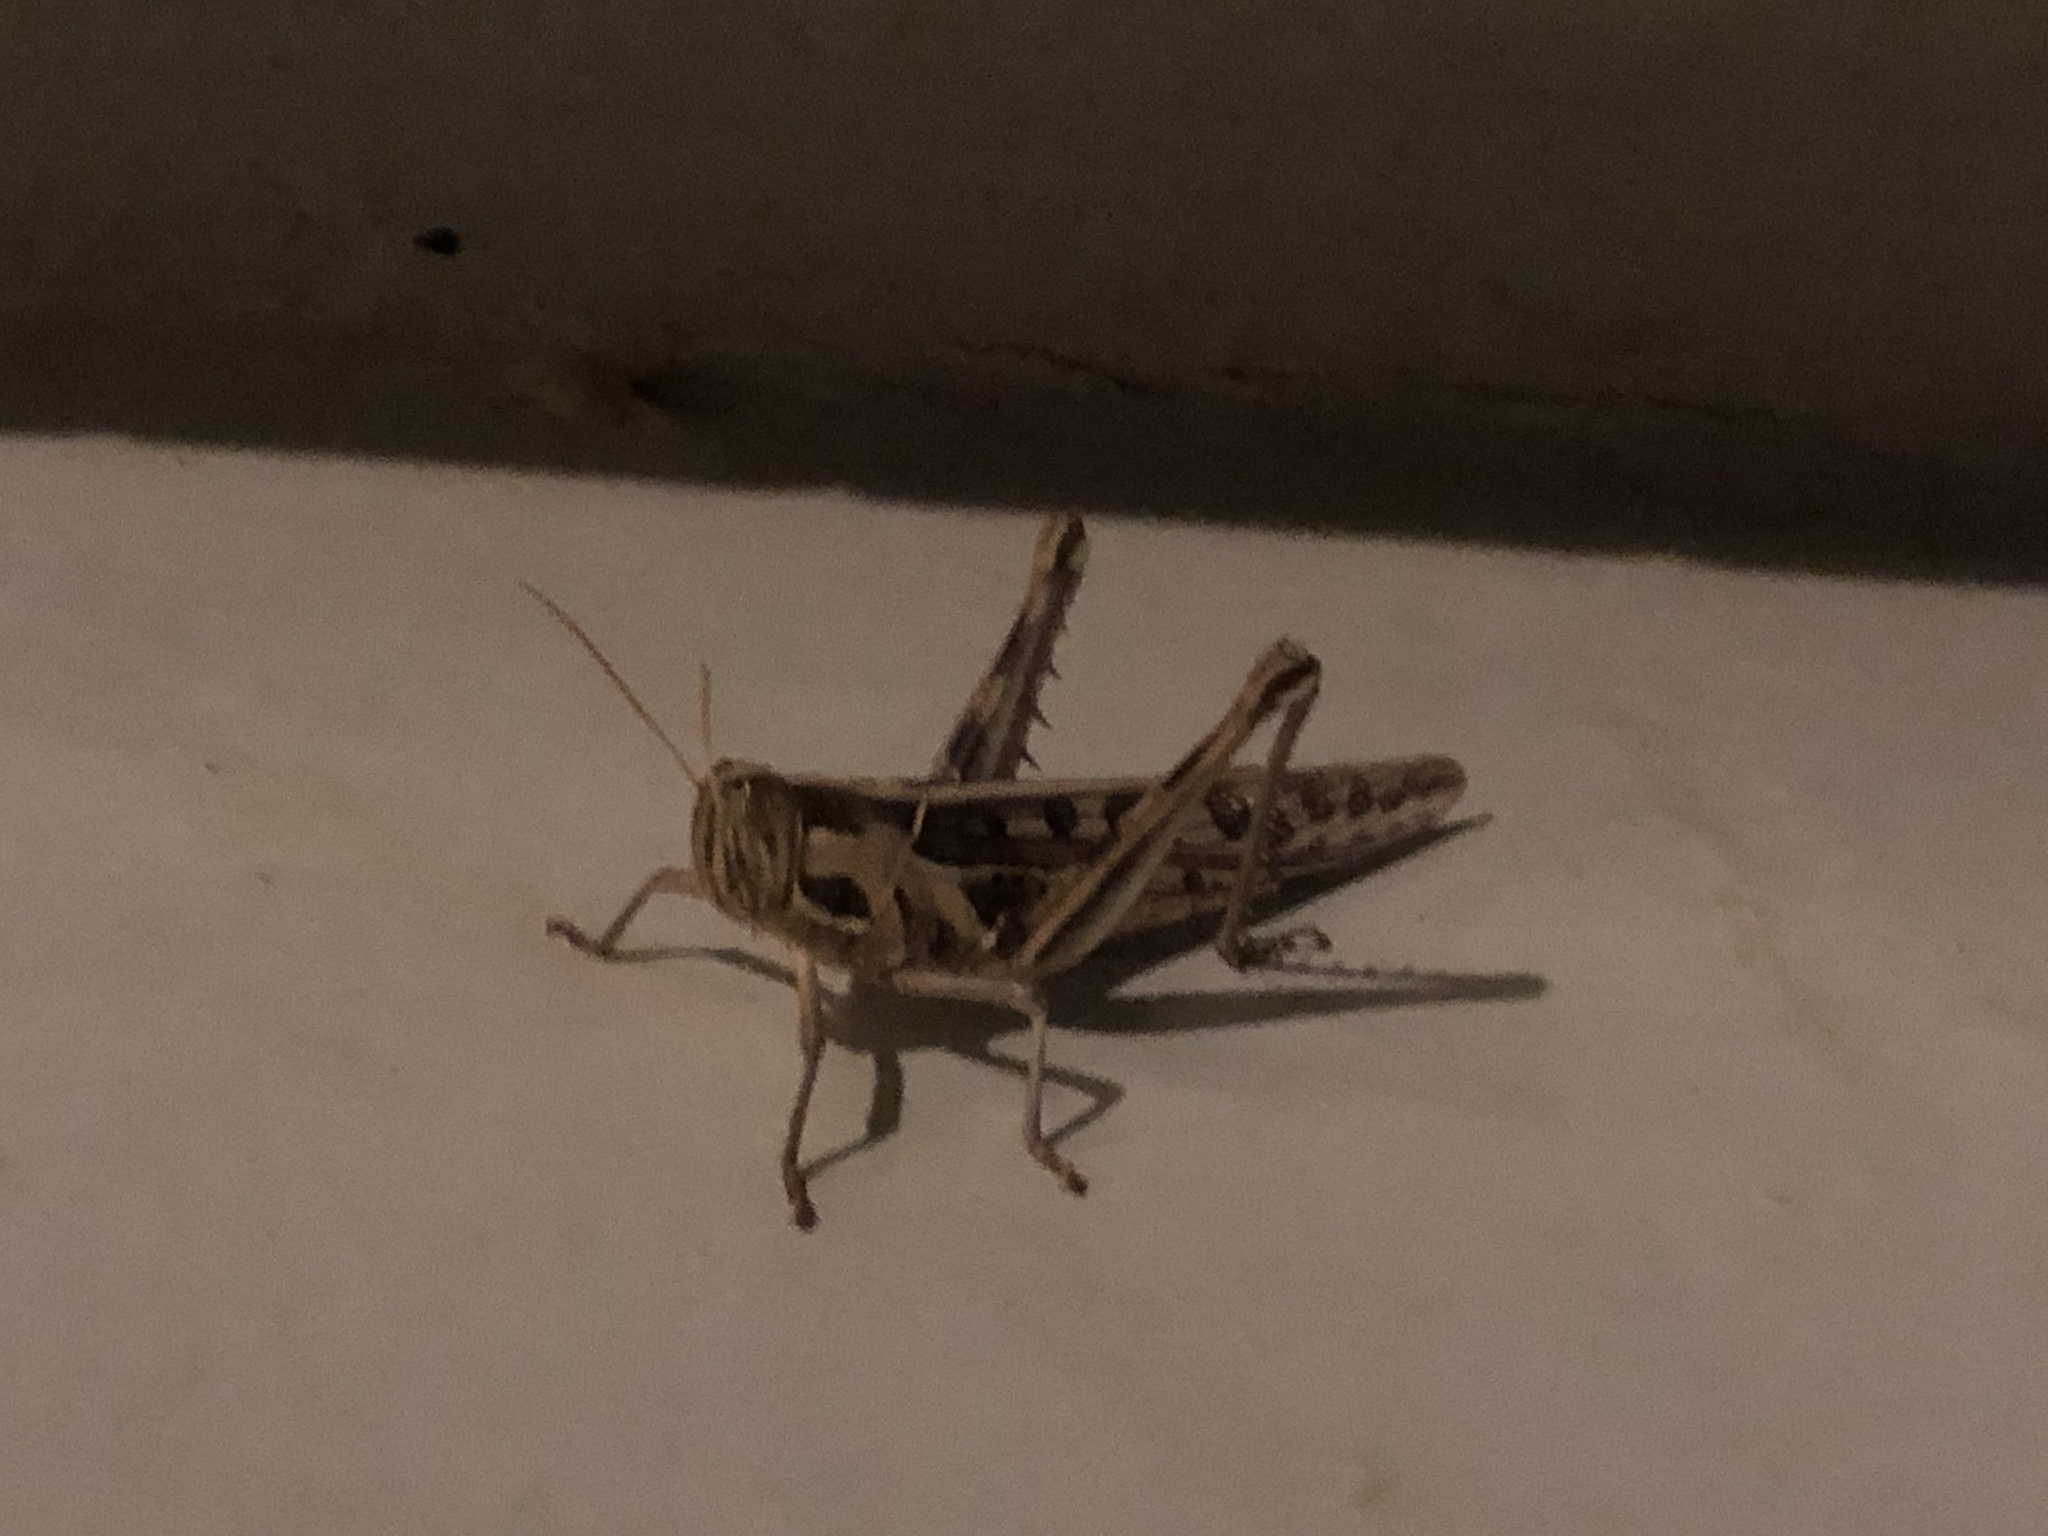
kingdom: Animalia
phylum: Arthropoda
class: Insecta
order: Orthoptera
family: Acrididae
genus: Cyrtacanthacris
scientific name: Cyrtacanthacris tatarica
